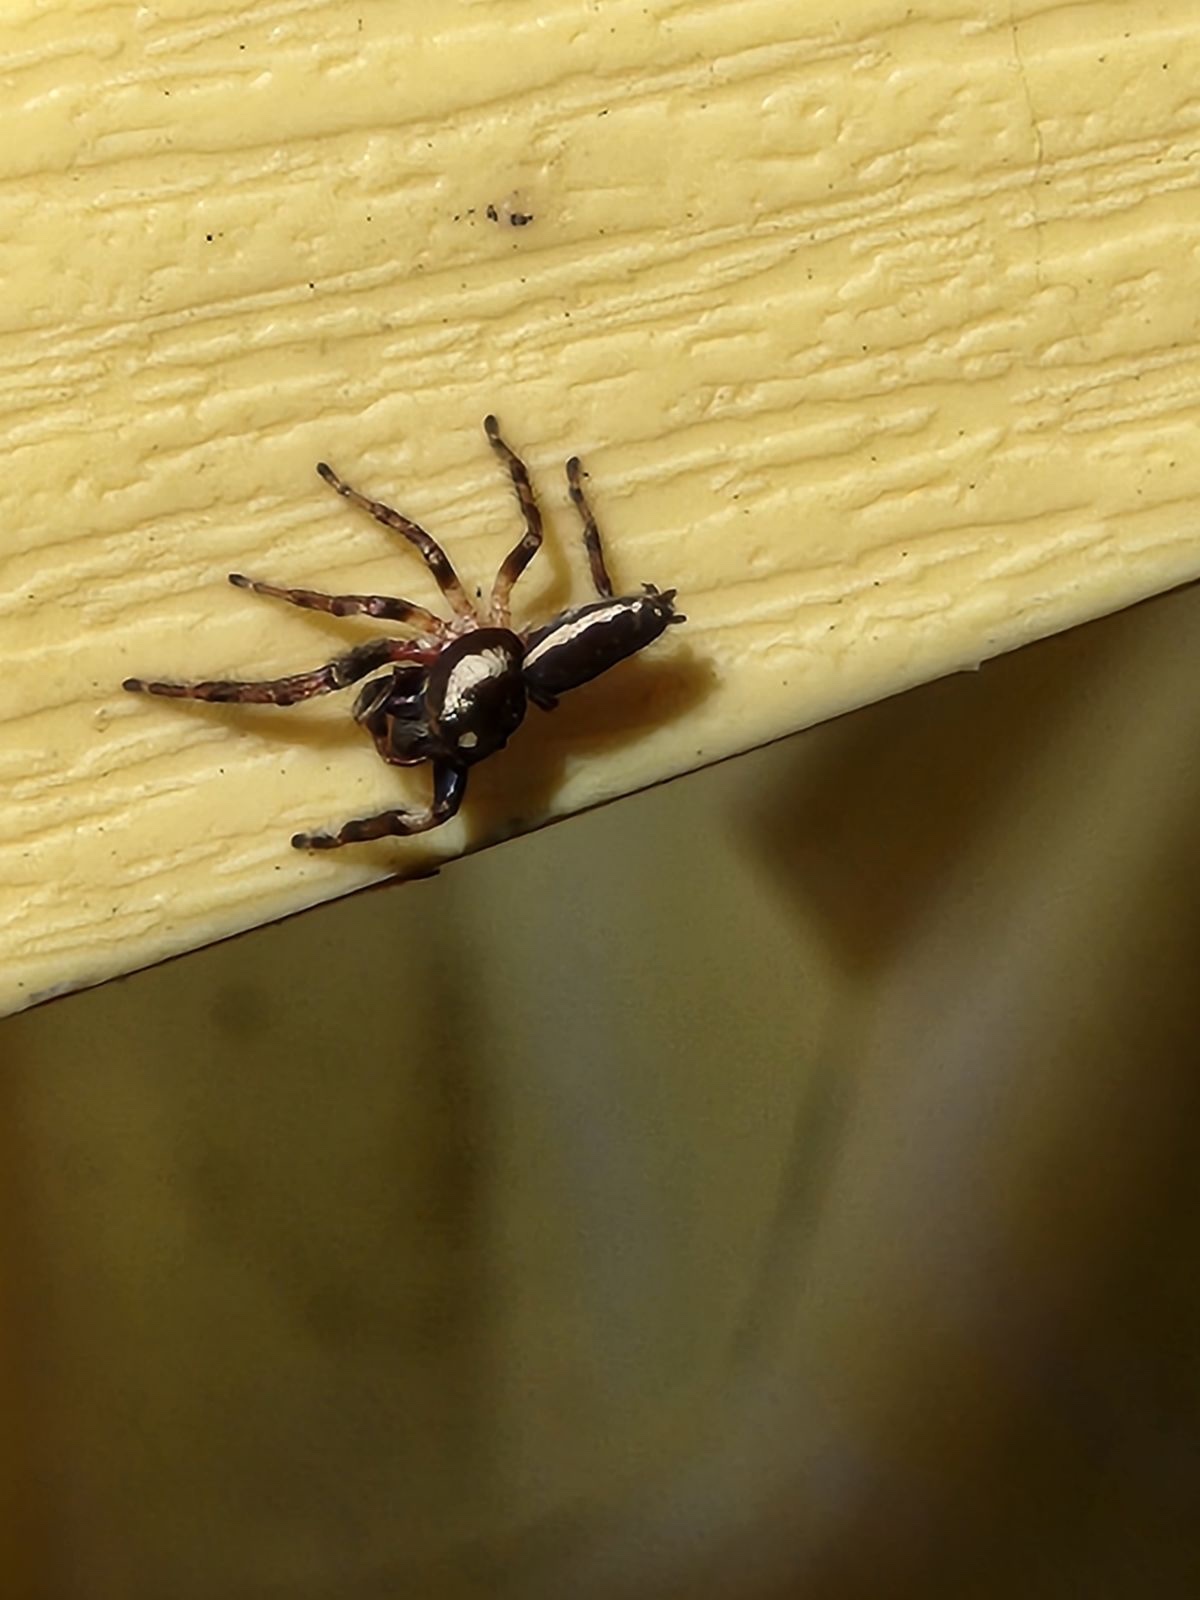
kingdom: Animalia
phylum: Arthropoda
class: Arachnida
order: Araneae
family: Salticidae
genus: Eris
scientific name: Eris militaris
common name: Bronze jumper
